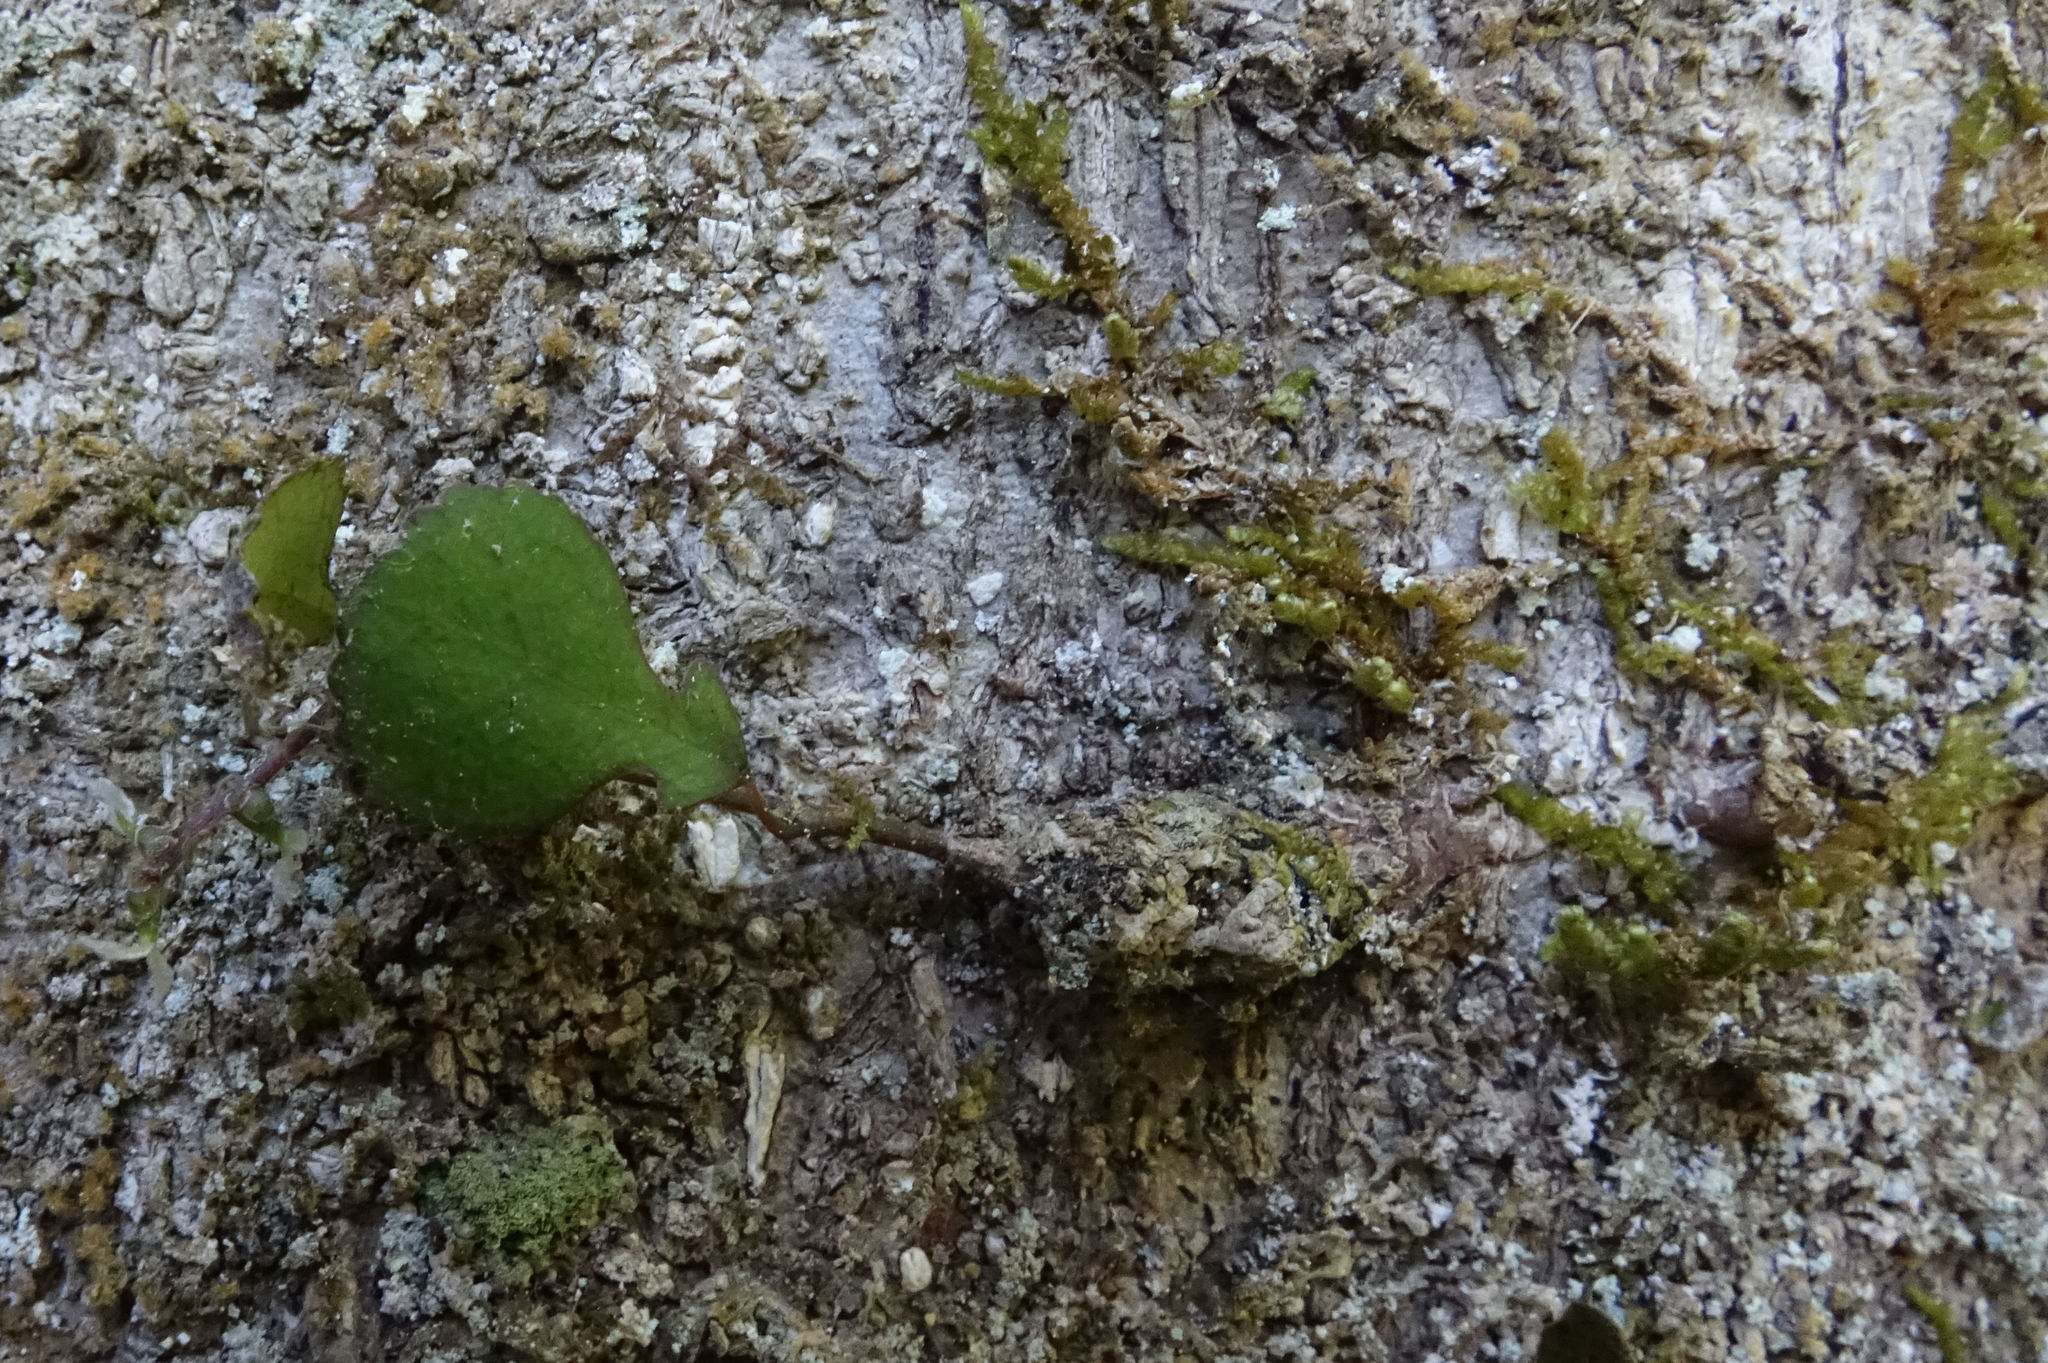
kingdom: Plantae
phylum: Tracheophyta
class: Magnoliopsida
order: Rosales
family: Moraceae
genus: Paratrophis
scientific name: Paratrophis microphylla
